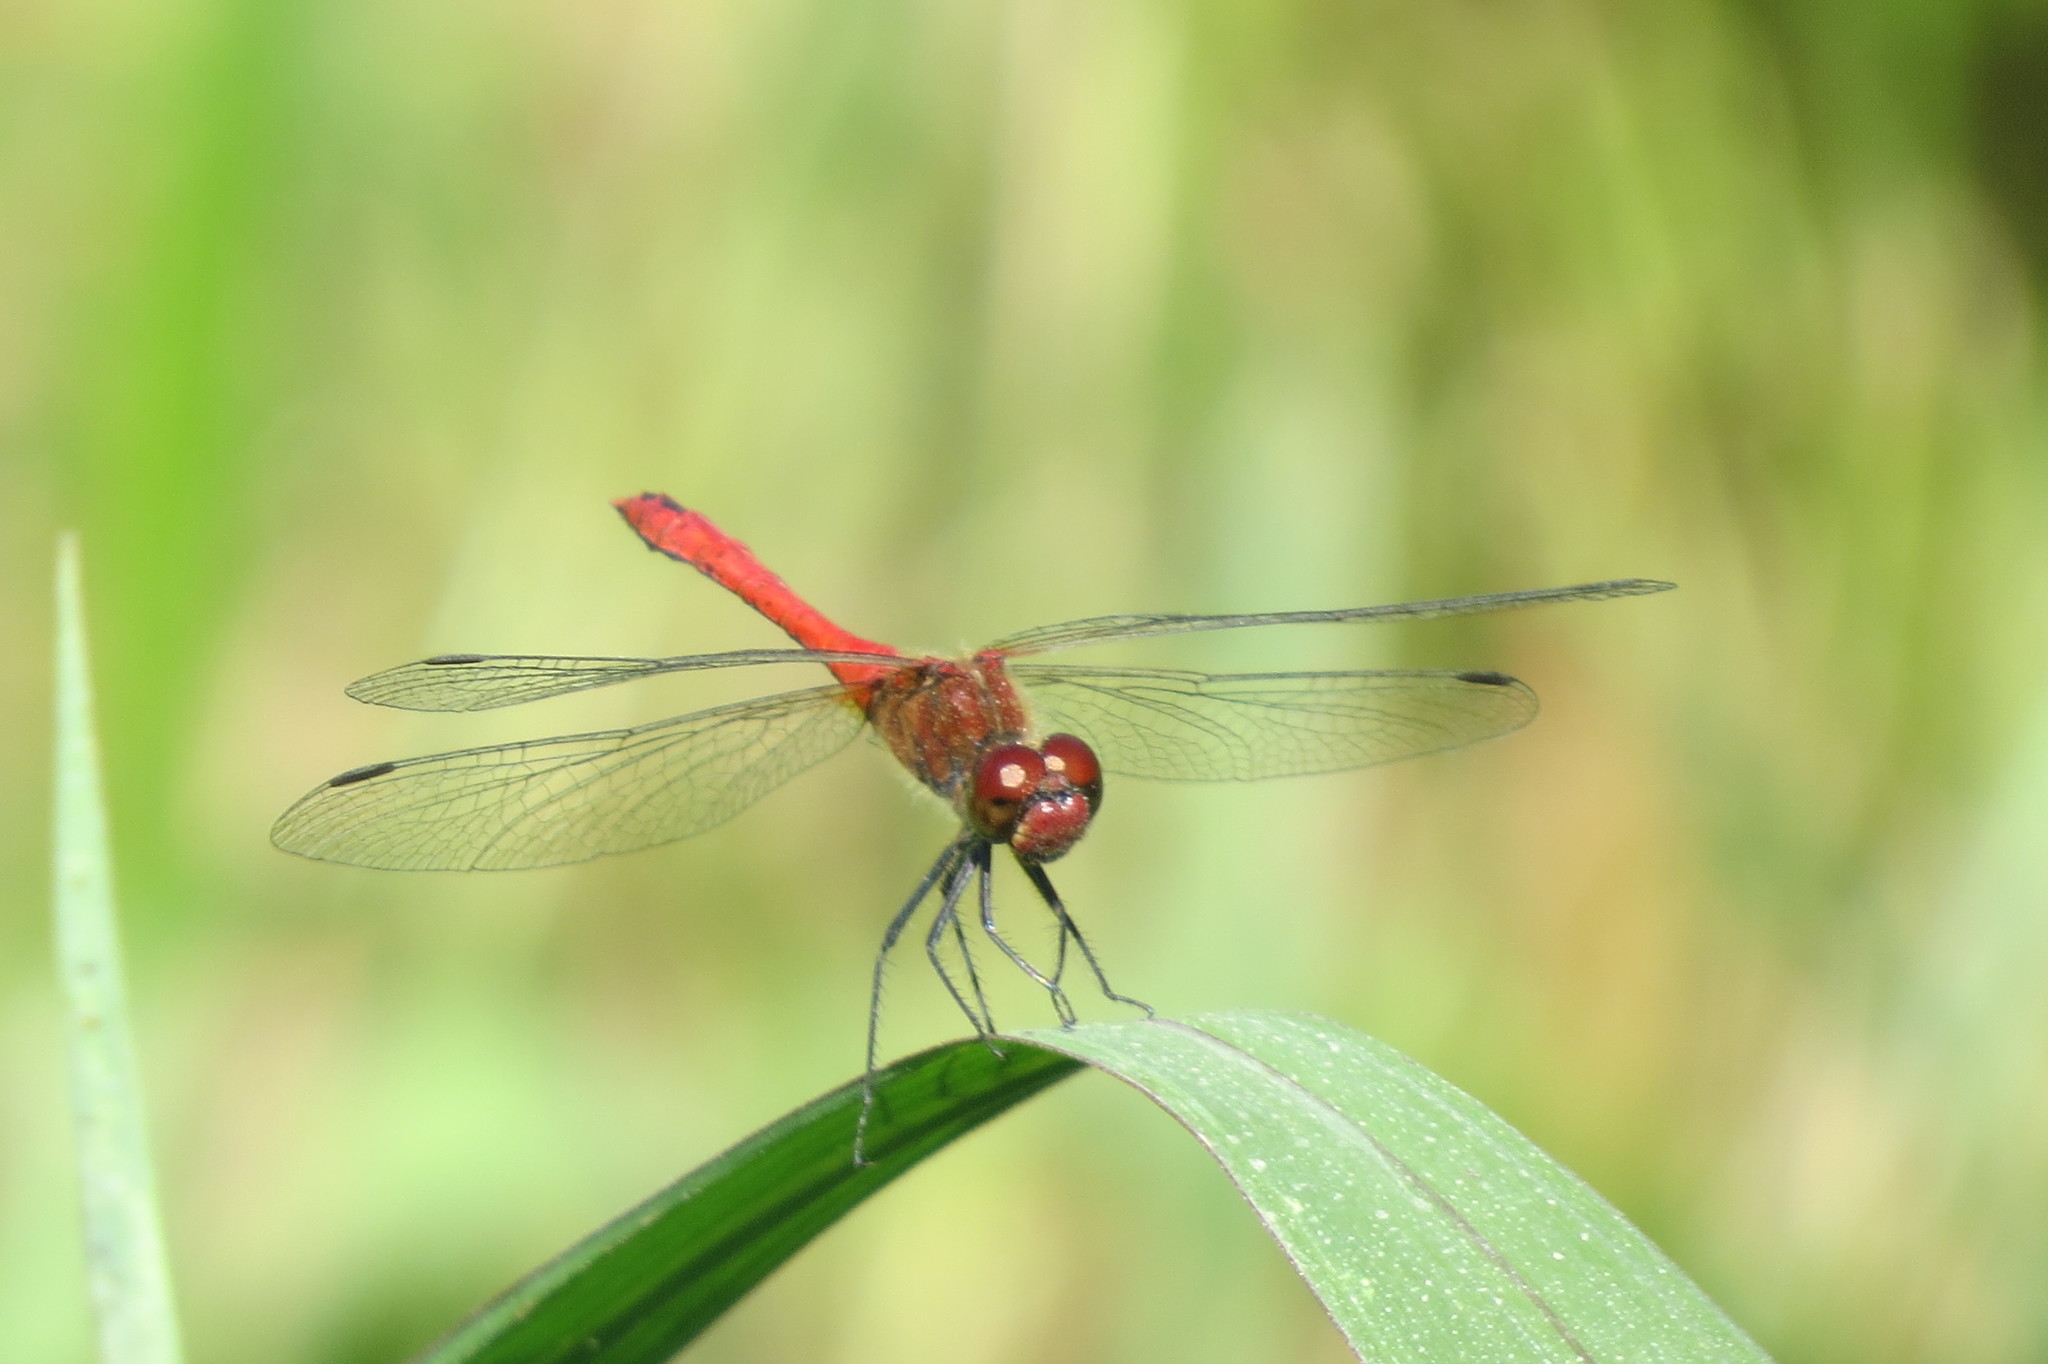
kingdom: Animalia
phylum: Arthropoda
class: Insecta
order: Odonata
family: Libellulidae
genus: Sympetrum
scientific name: Sympetrum sanguineum
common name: Ruddy darter
